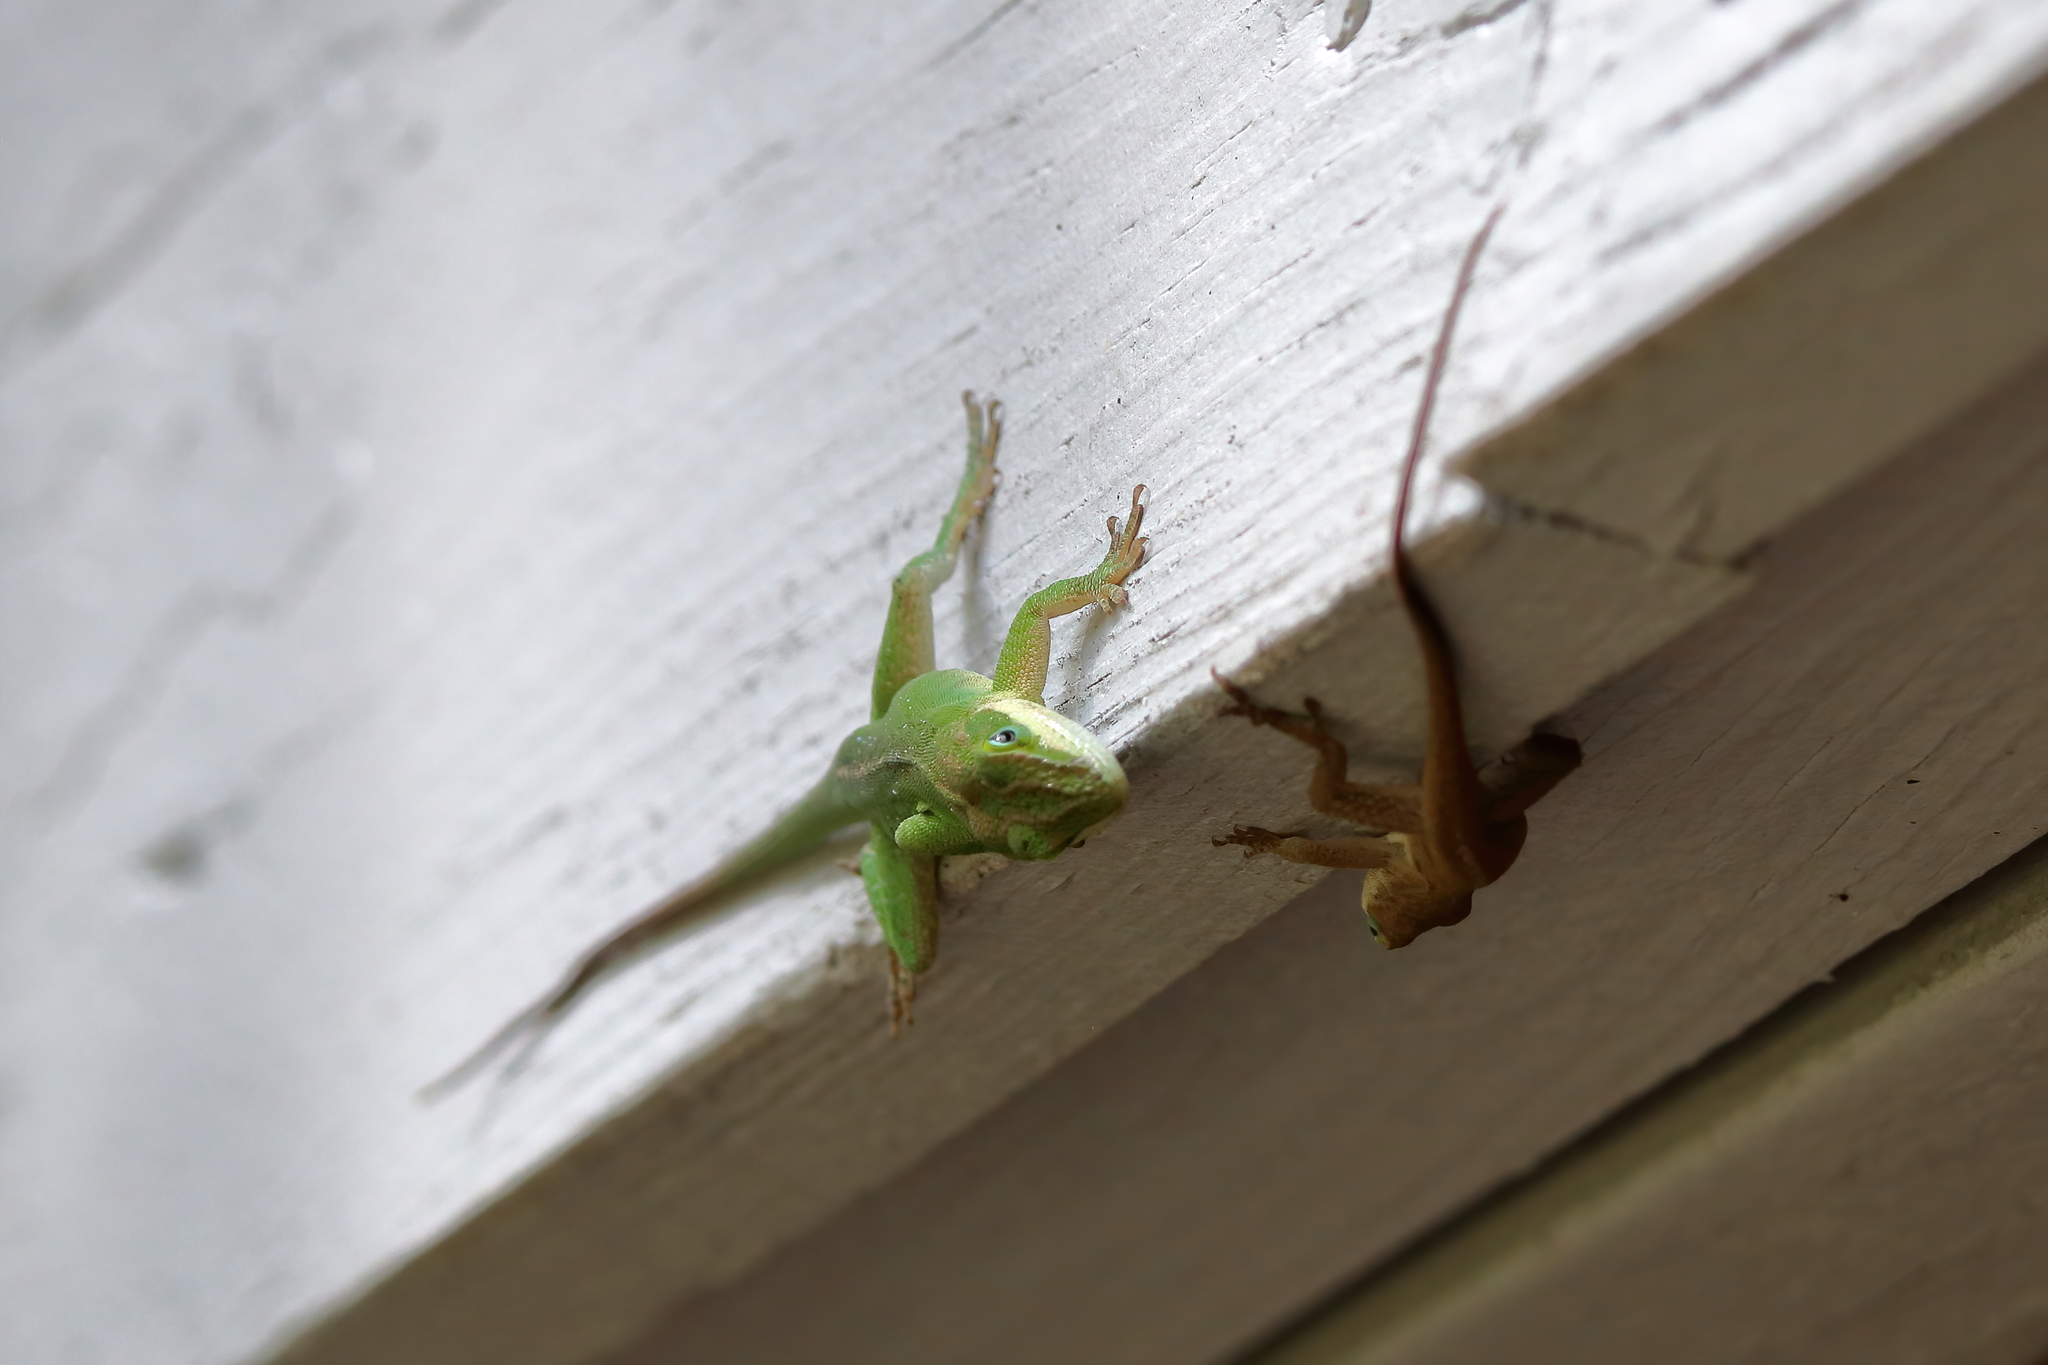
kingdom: Animalia
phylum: Chordata
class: Squamata
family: Dactyloidae
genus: Anolis
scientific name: Anolis carolinensis
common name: Green anole
